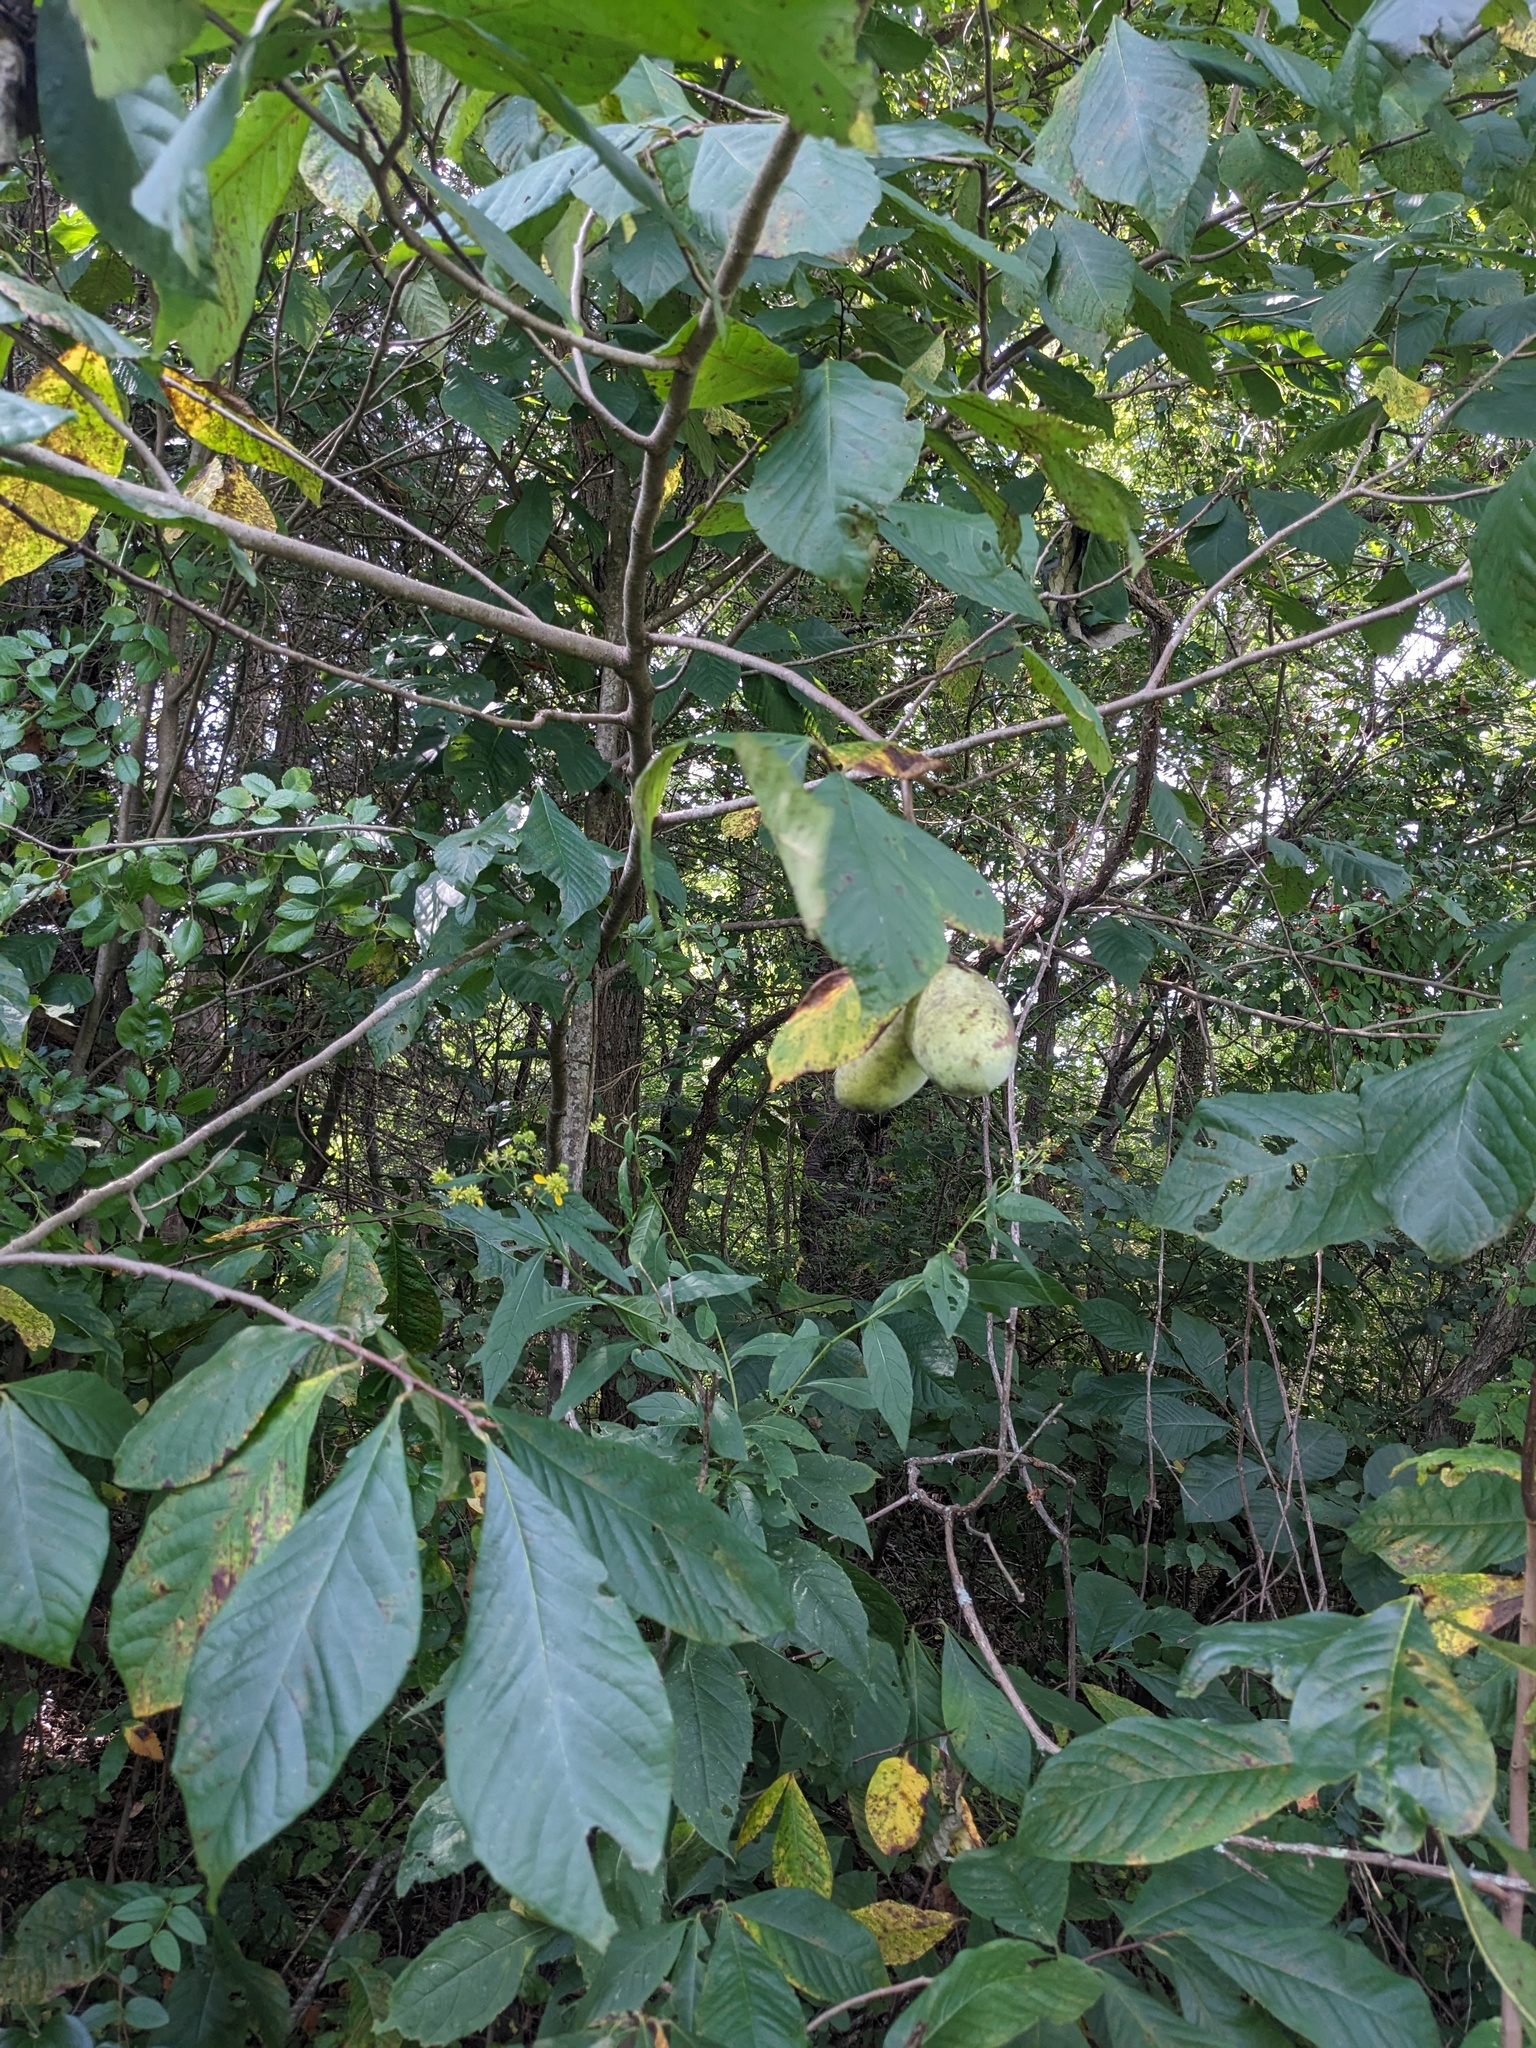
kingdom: Plantae
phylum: Tracheophyta
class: Magnoliopsida
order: Magnoliales
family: Annonaceae
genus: Asimina
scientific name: Asimina triloba
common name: Dog-banana
